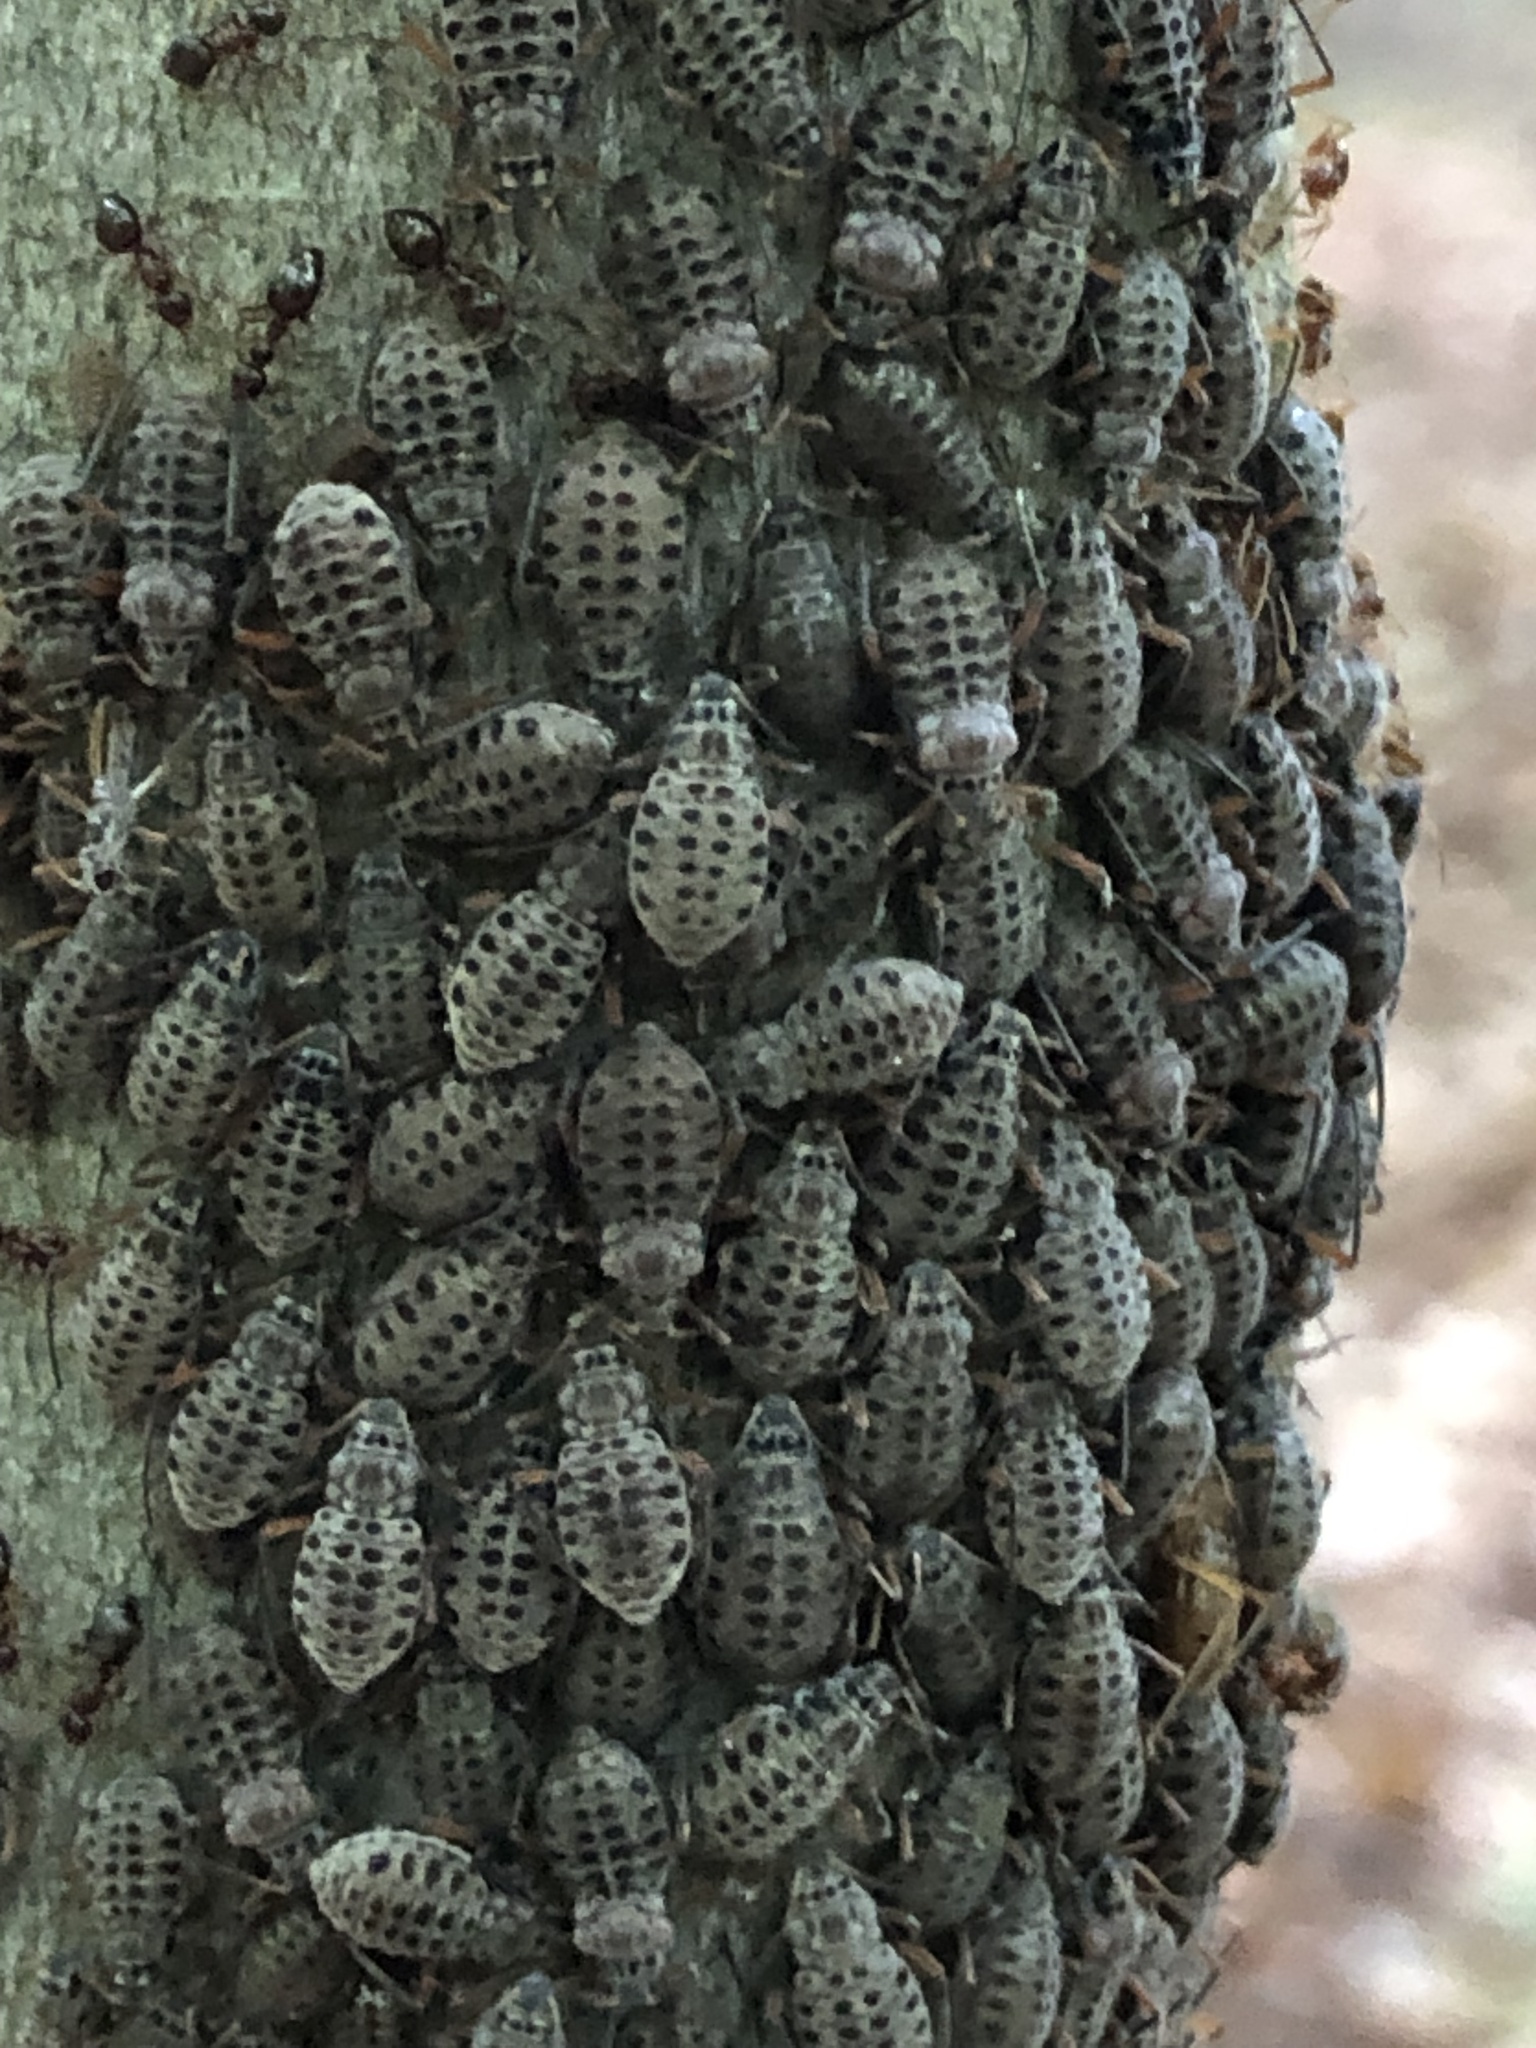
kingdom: Animalia
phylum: Arthropoda
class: Insecta
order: Hemiptera
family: Aphididae
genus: Longistigma
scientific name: Longistigma caryae
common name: Giant bark aphid
